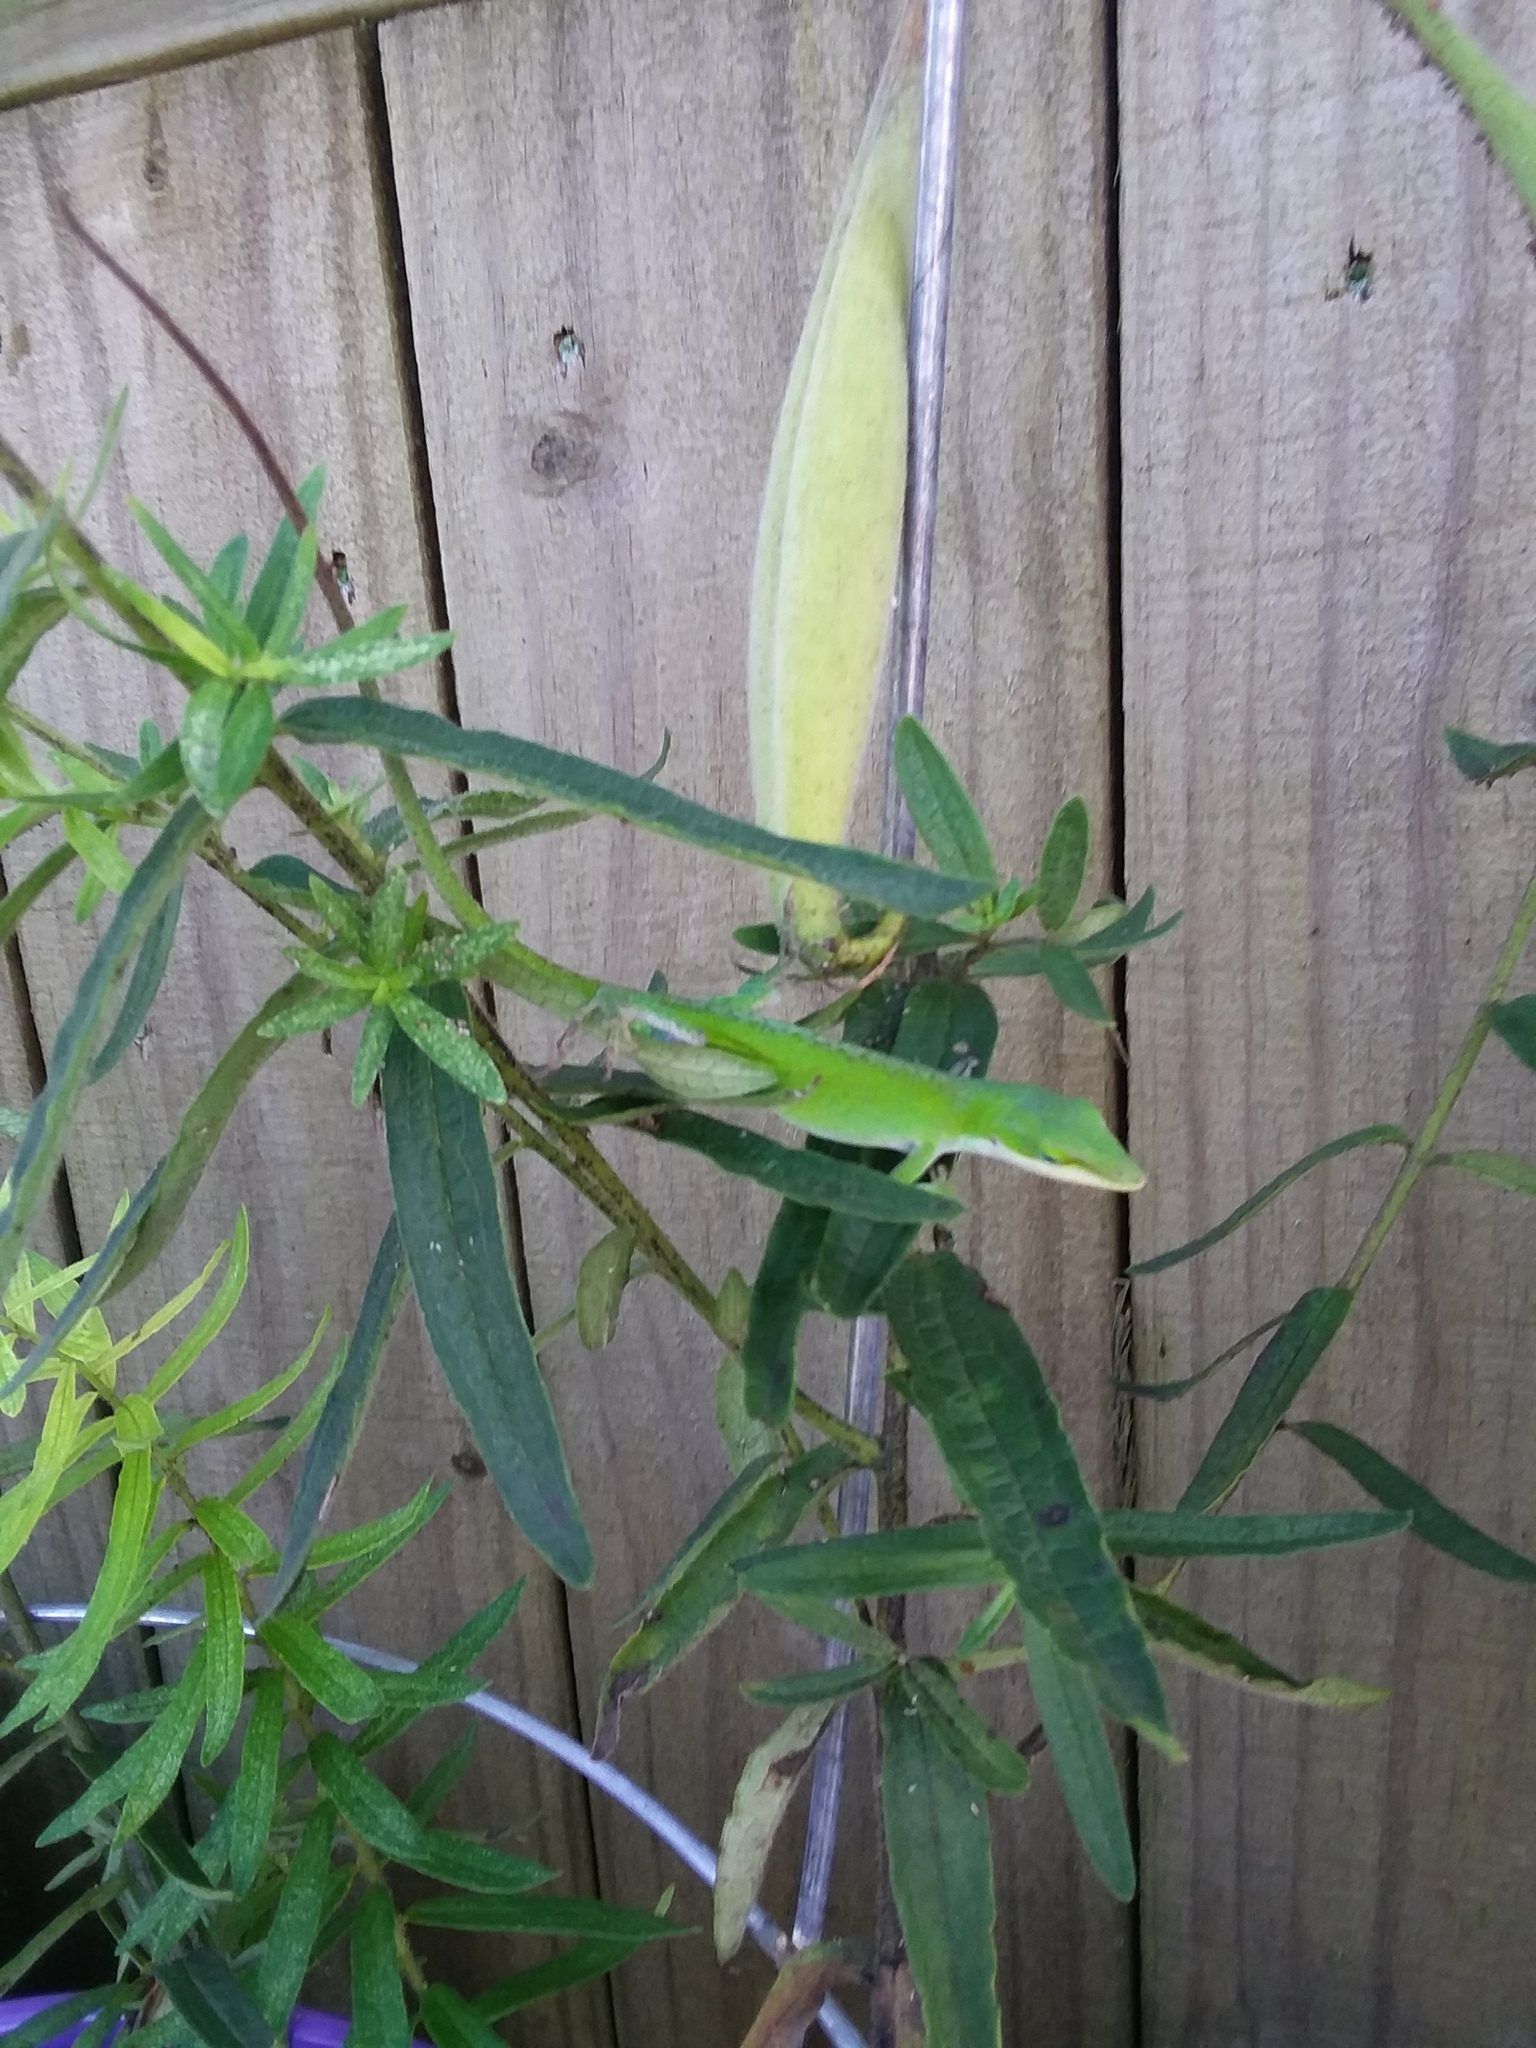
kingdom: Animalia
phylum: Chordata
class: Squamata
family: Dactyloidae
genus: Anolis
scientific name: Anolis carolinensis
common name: Green anole
